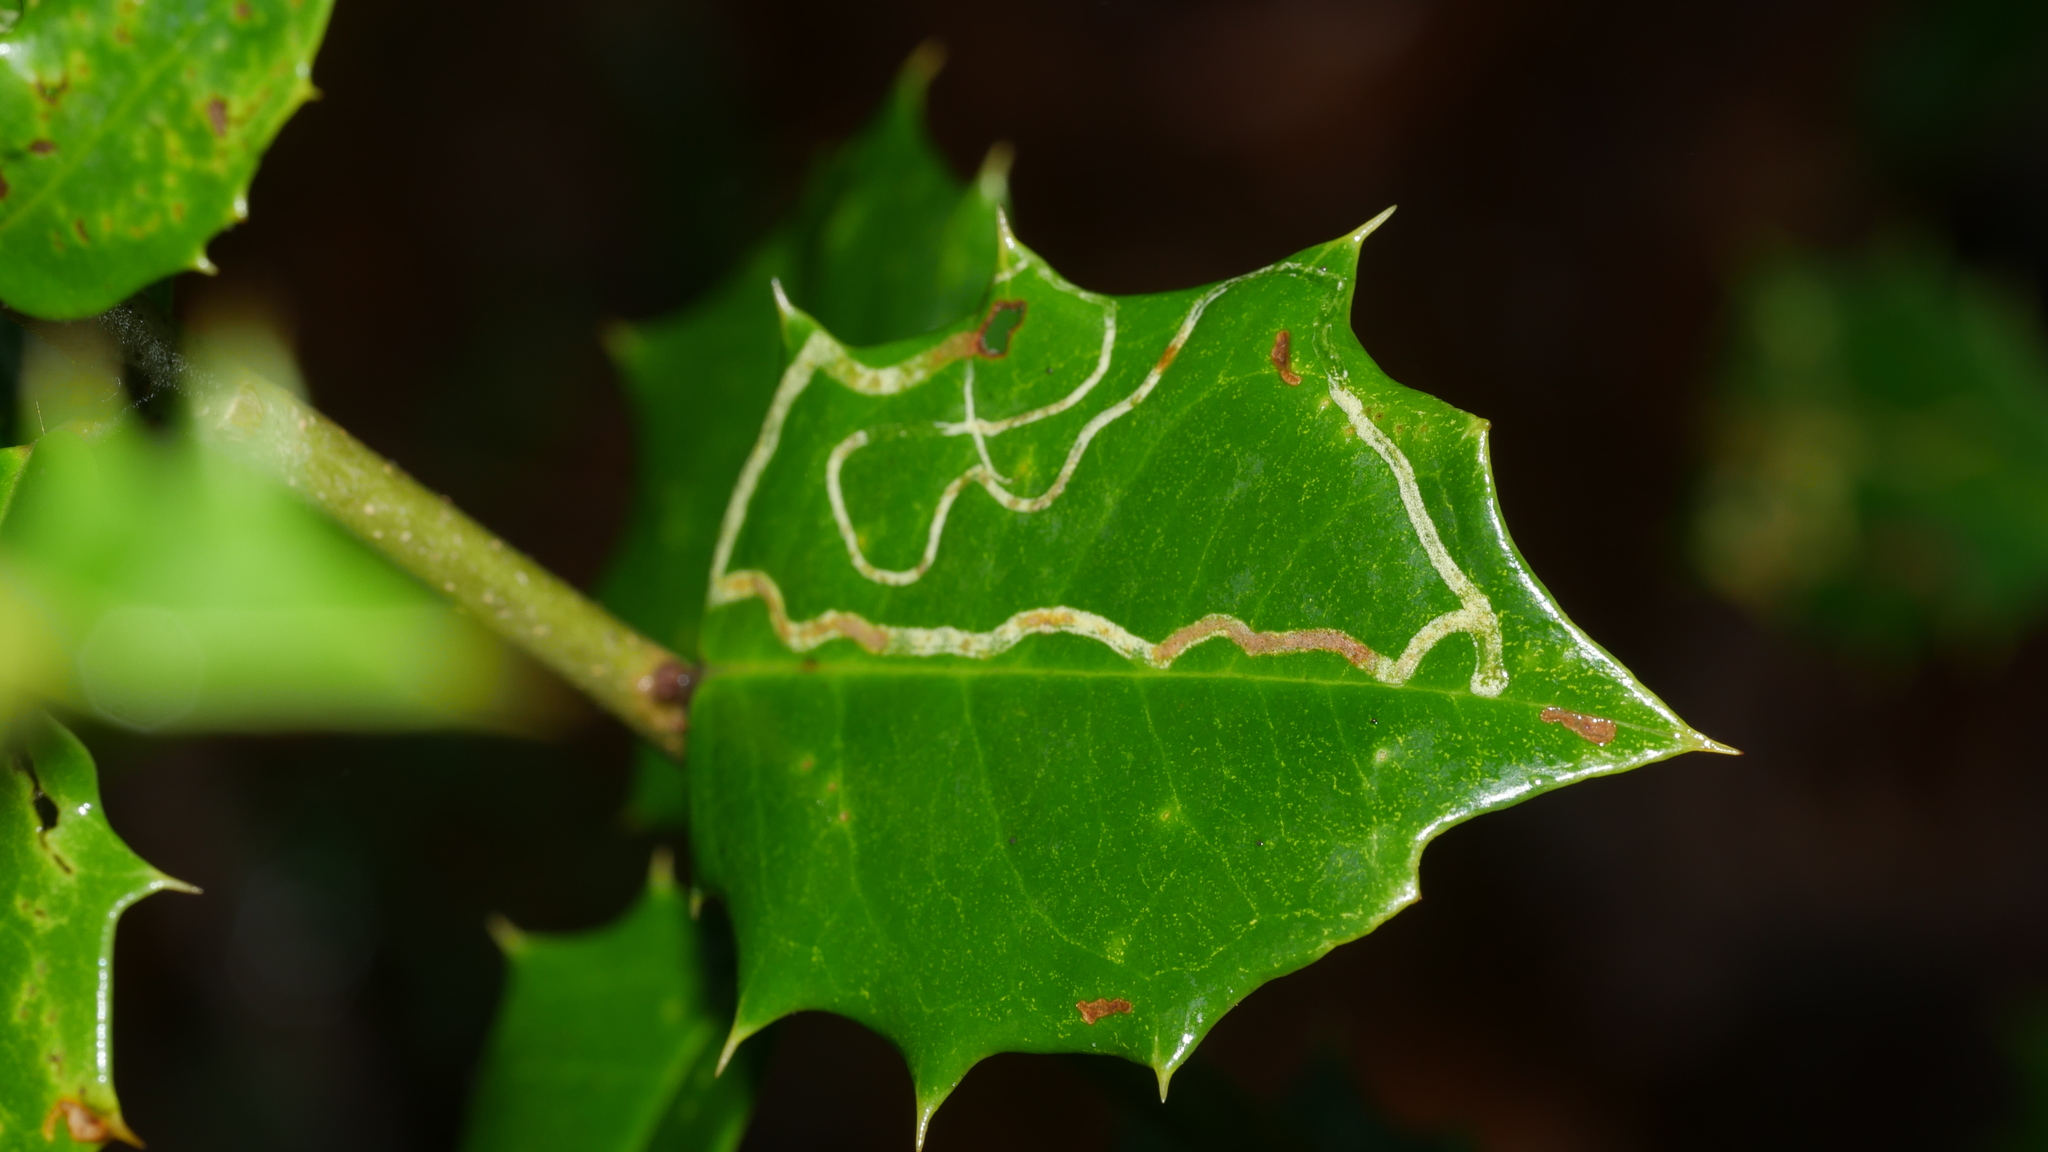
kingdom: Animalia
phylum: Arthropoda
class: Insecta
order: Diptera
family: Agromyzidae
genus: Phytomyza
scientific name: Phytomyza opacae
